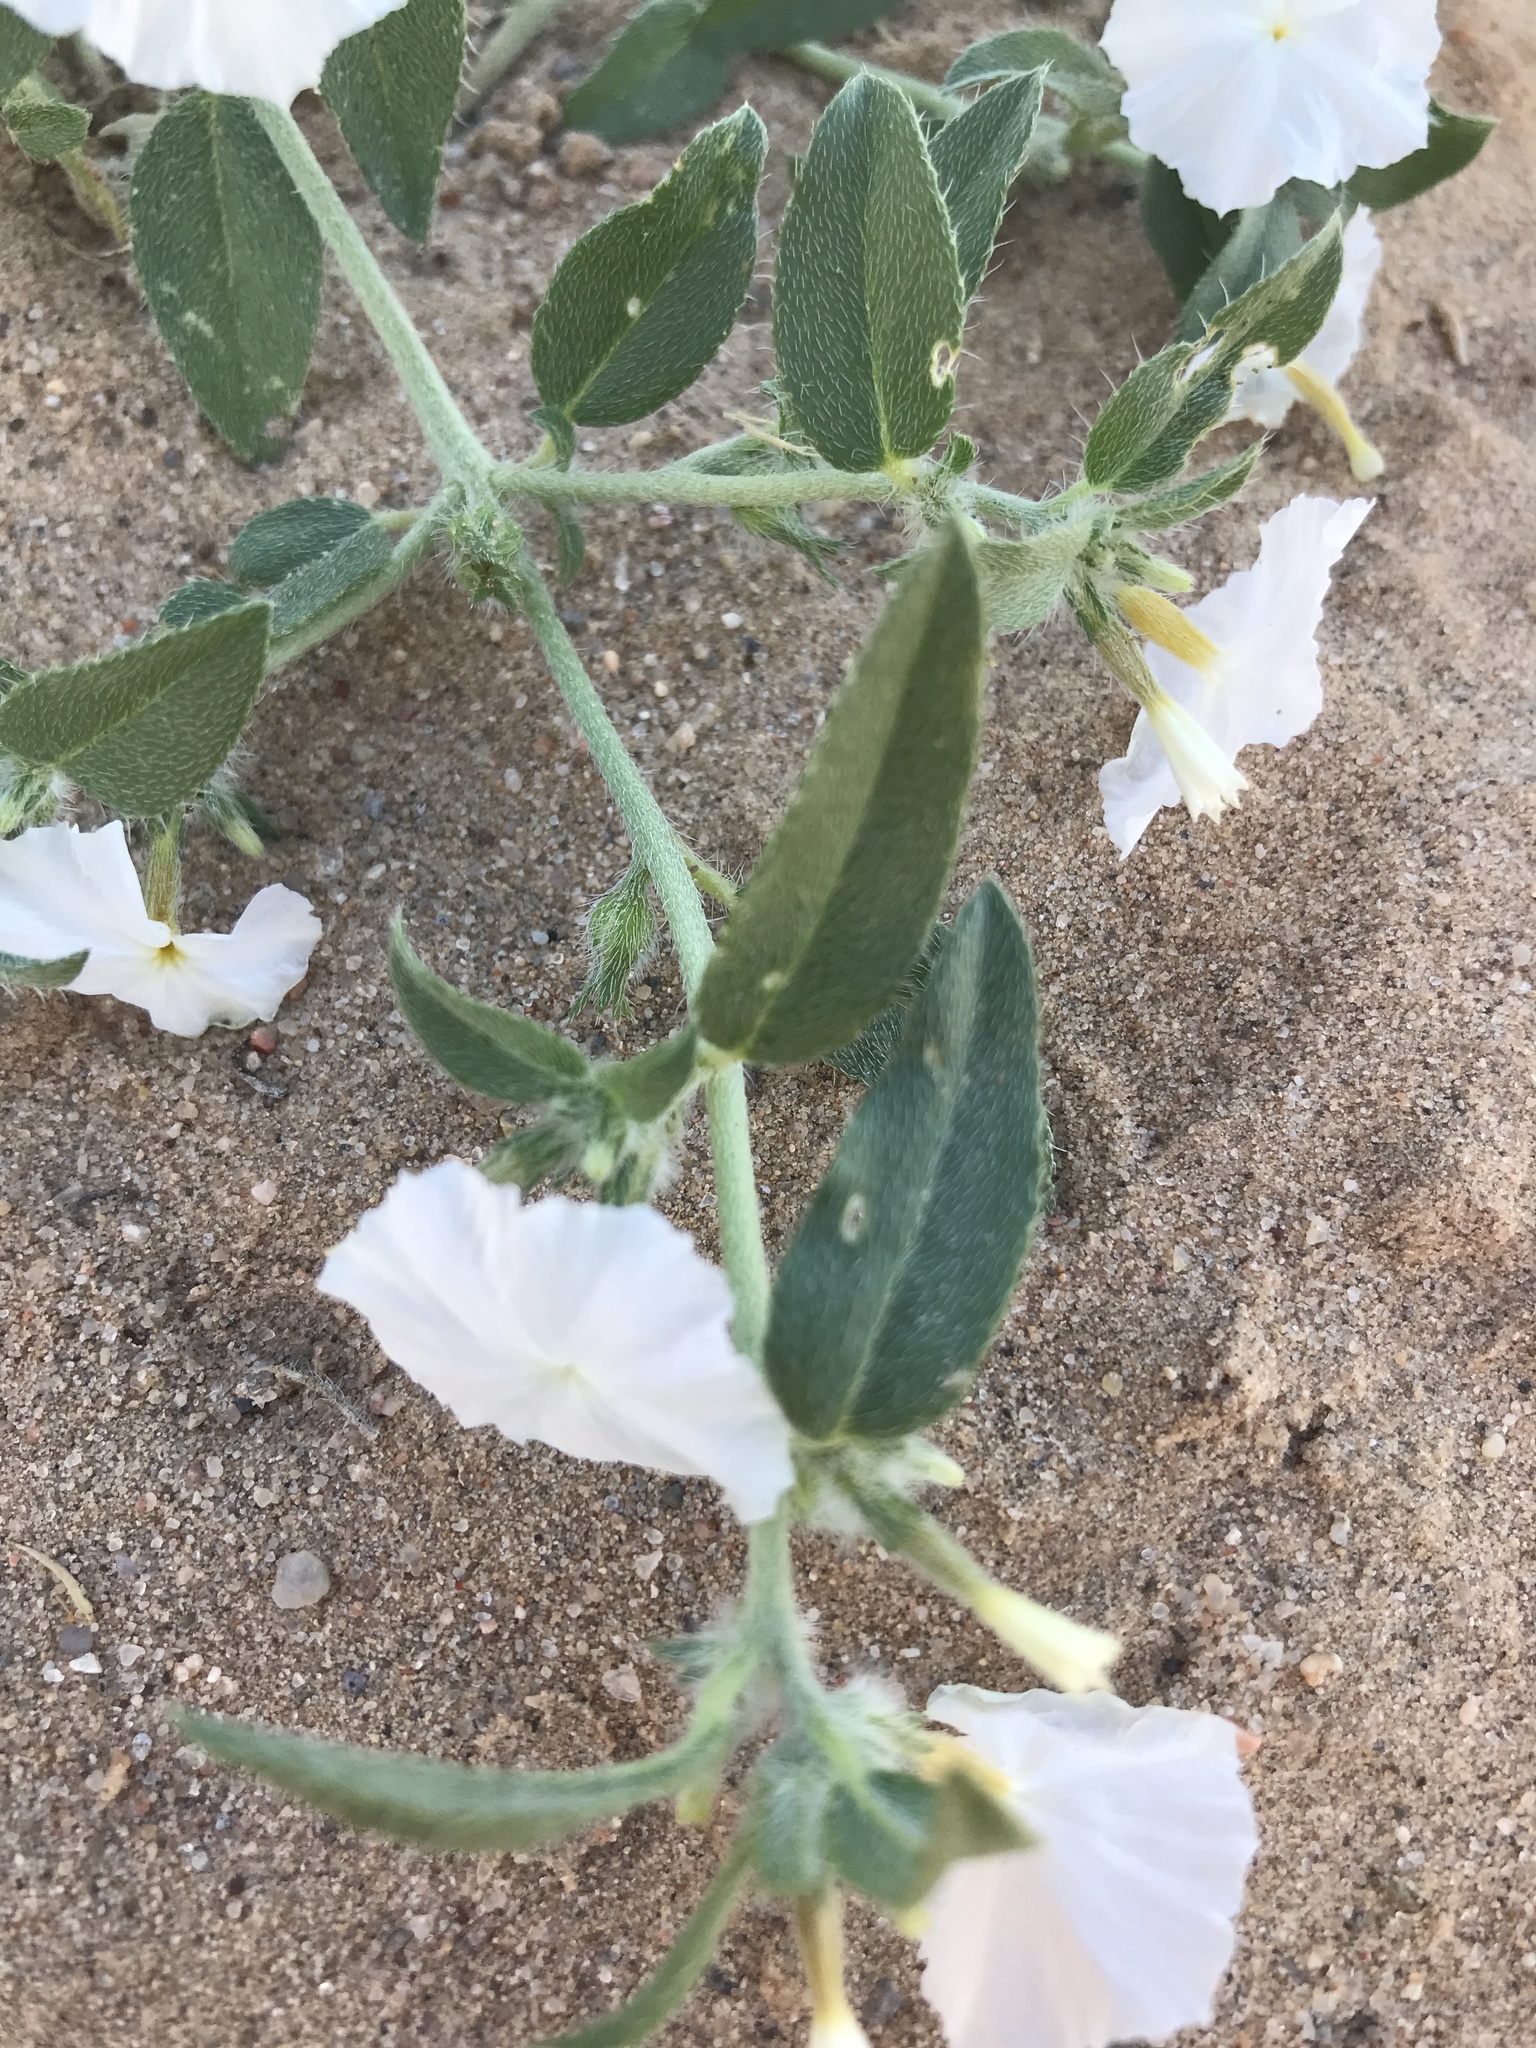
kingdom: Plantae
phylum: Tracheophyta
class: Magnoliopsida
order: Boraginales
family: Heliotropiaceae
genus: Euploca
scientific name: Euploca convolvulacea
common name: Bindweed heliotrope
